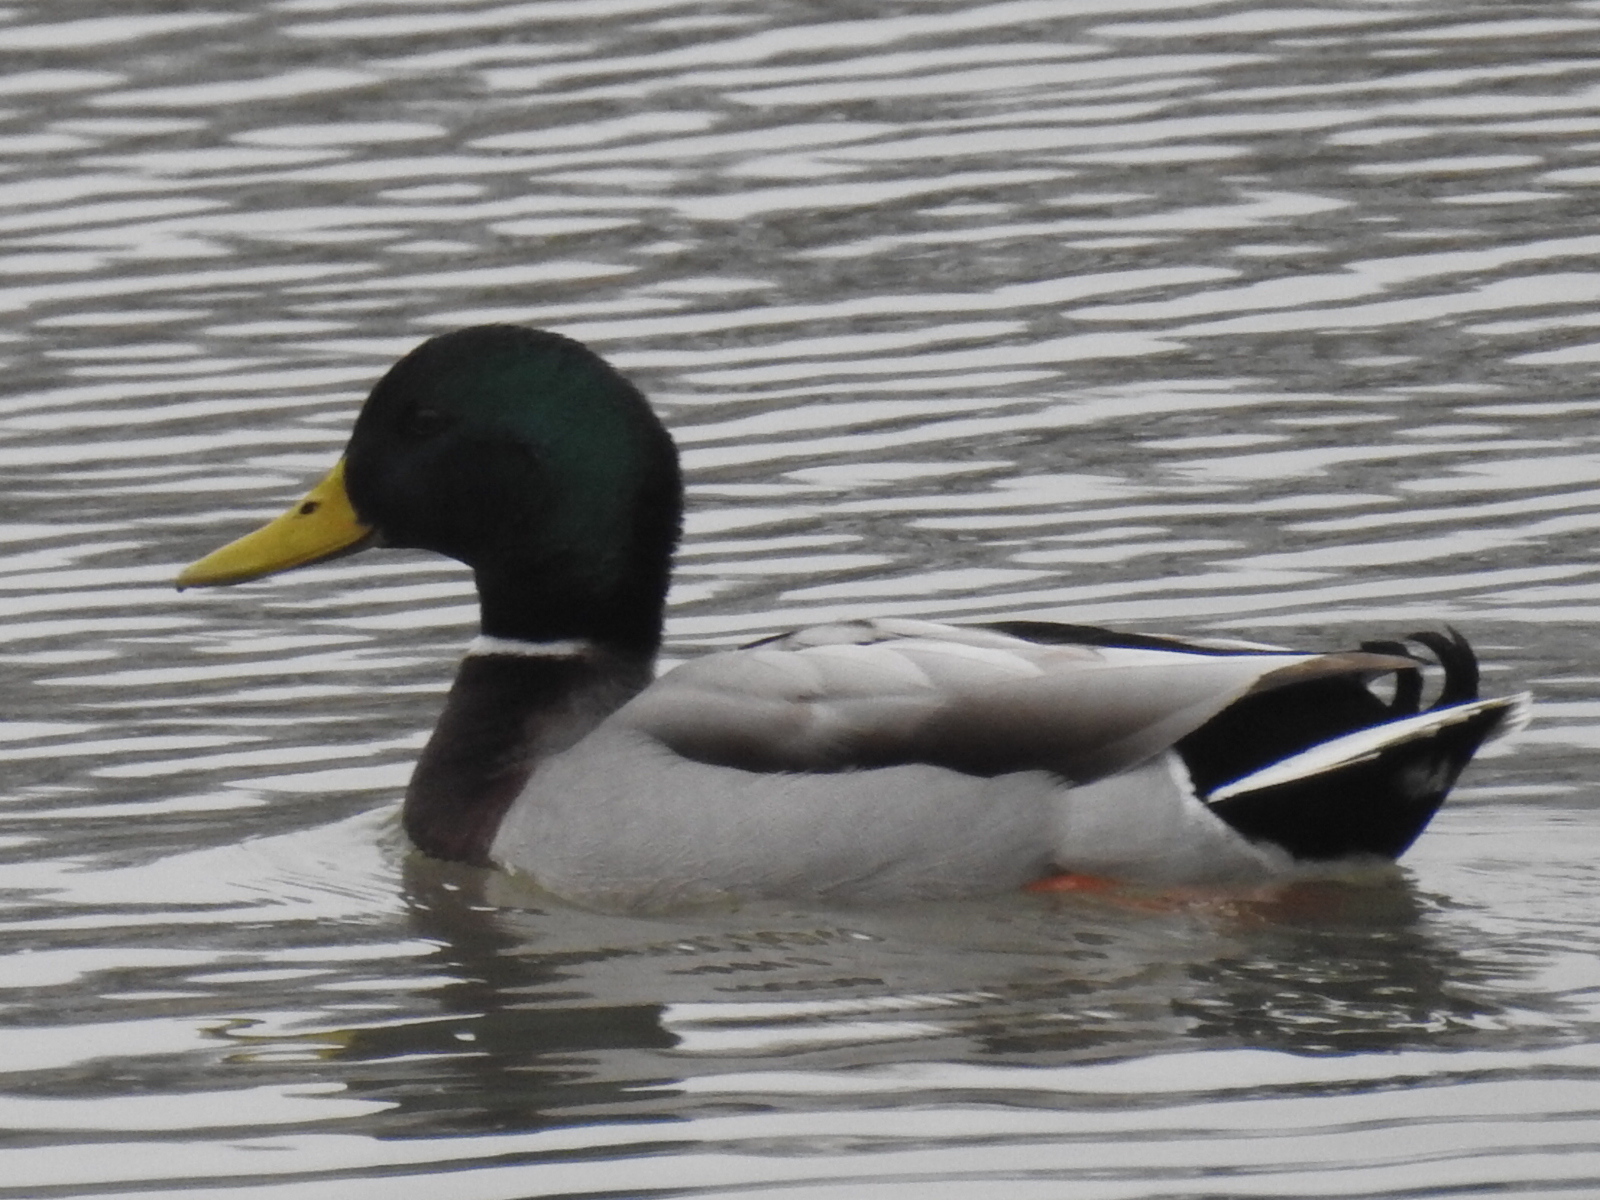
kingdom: Animalia
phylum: Chordata
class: Aves
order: Anseriformes
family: Anatidae
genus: Anas
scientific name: Anas platyrhynchos
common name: Mallard
